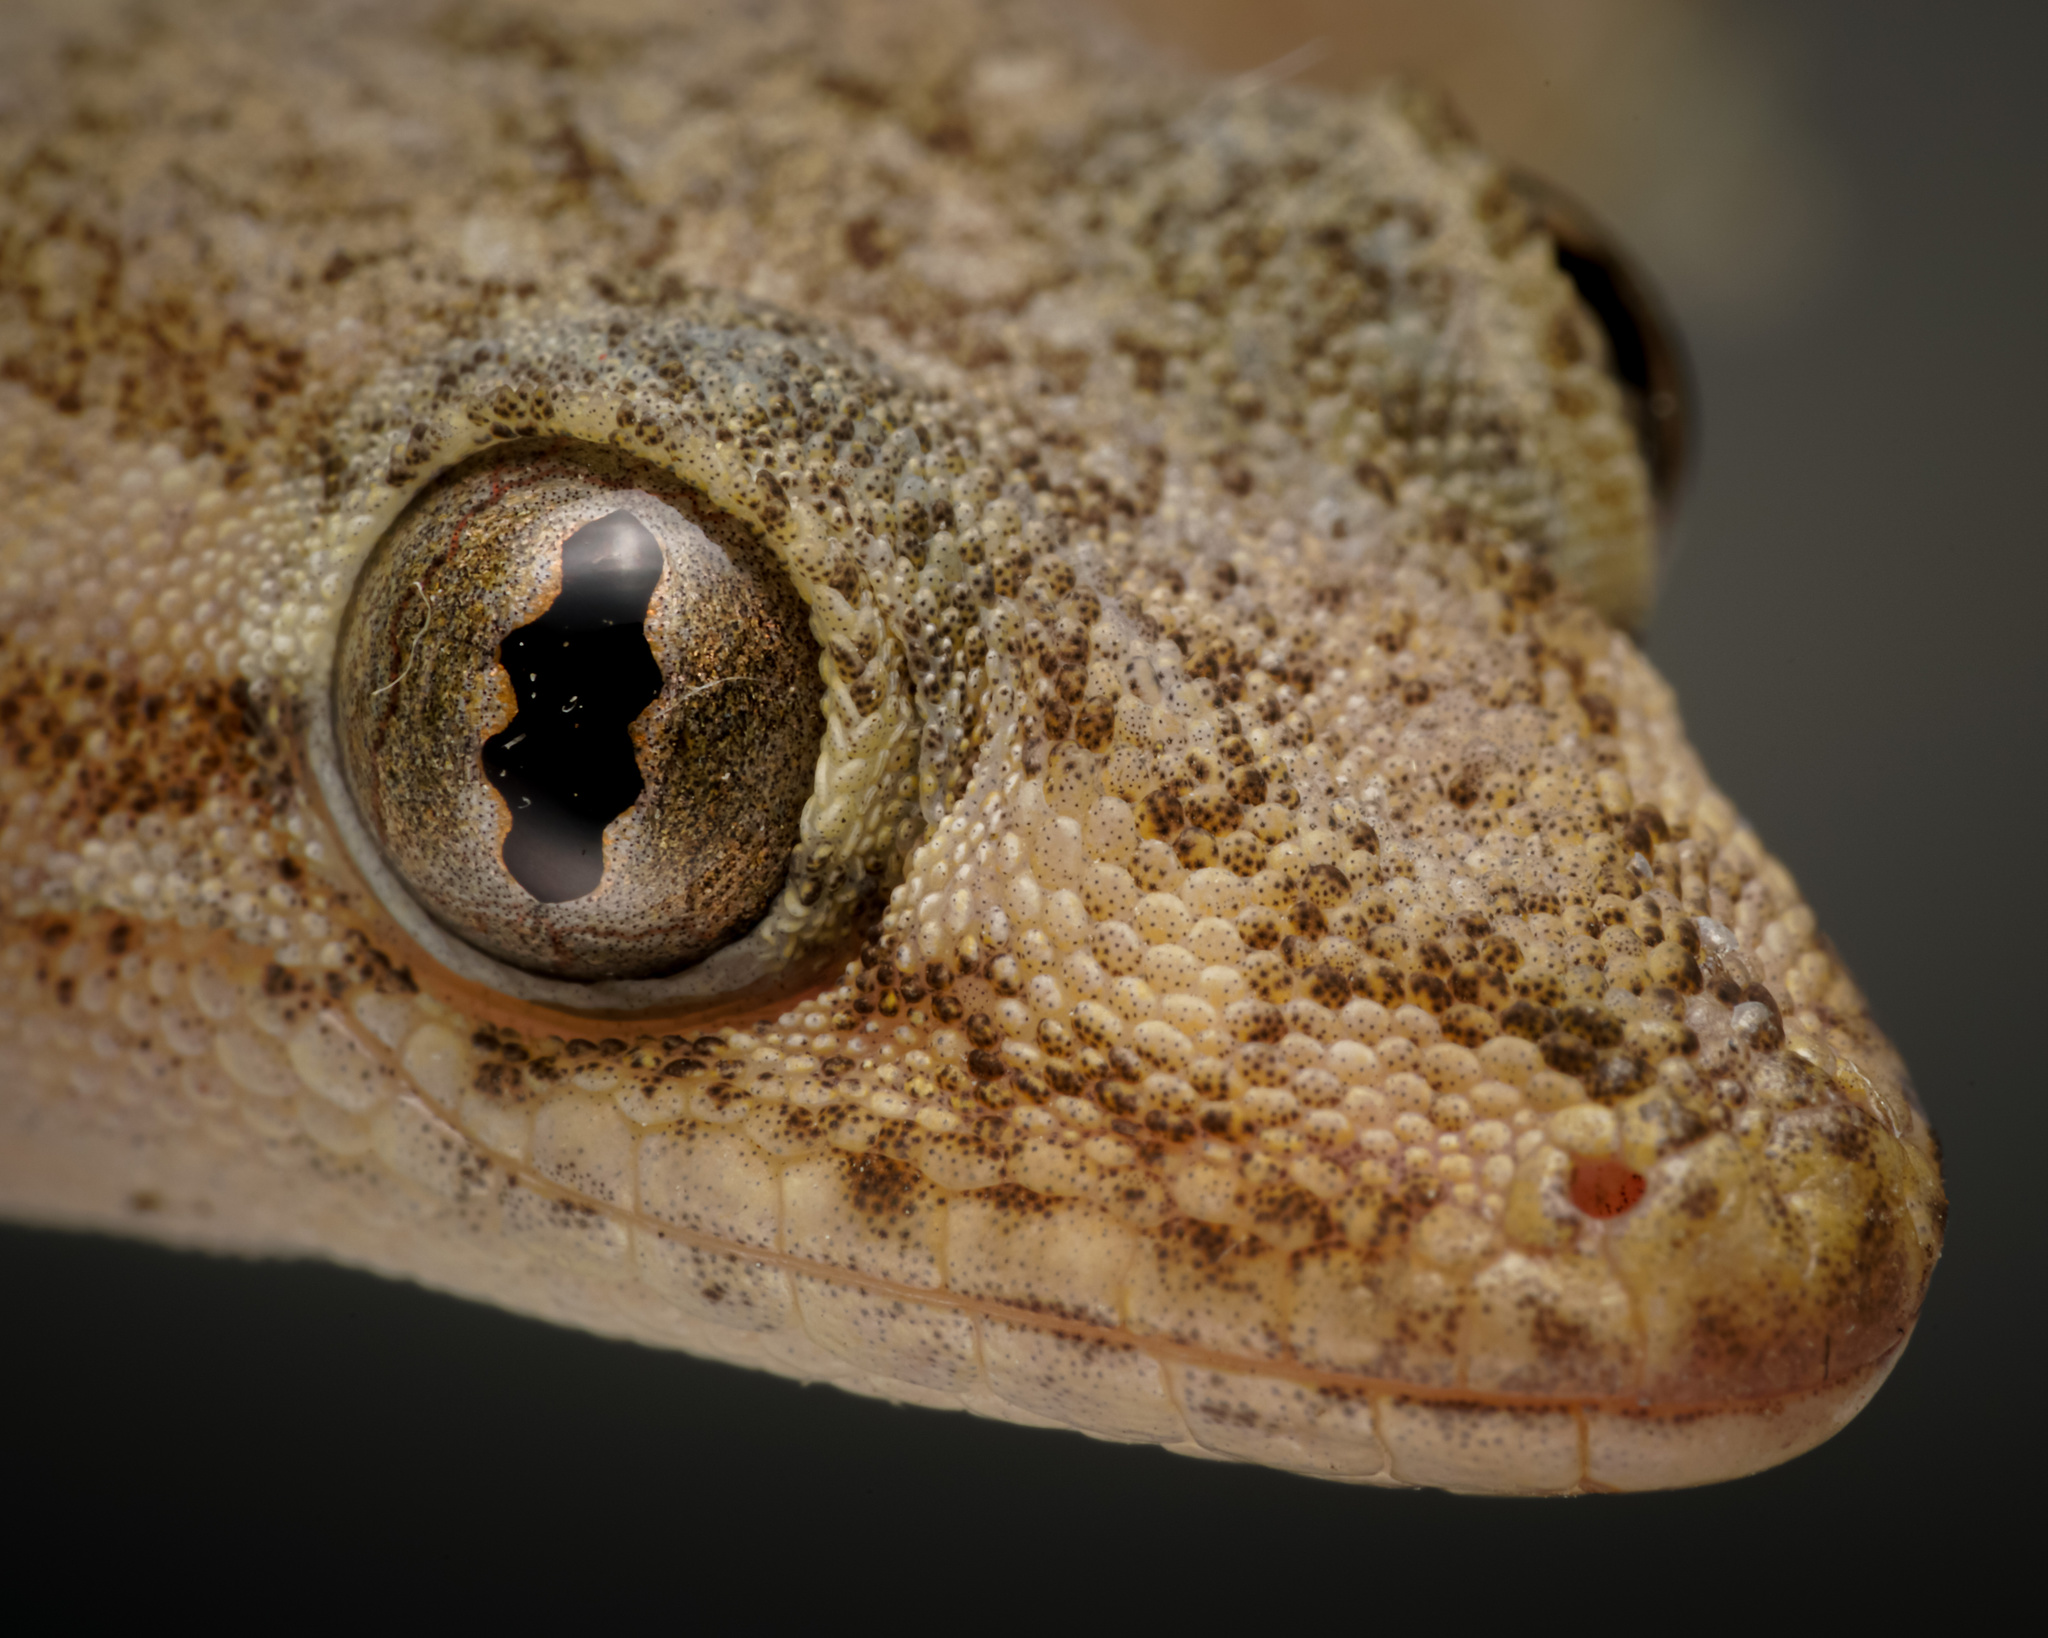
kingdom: Animalia
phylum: Chordata
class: Squamata
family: Gekkonidae
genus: Hemidactylus
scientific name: Hemidactylus frenatus
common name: Common house gecko
